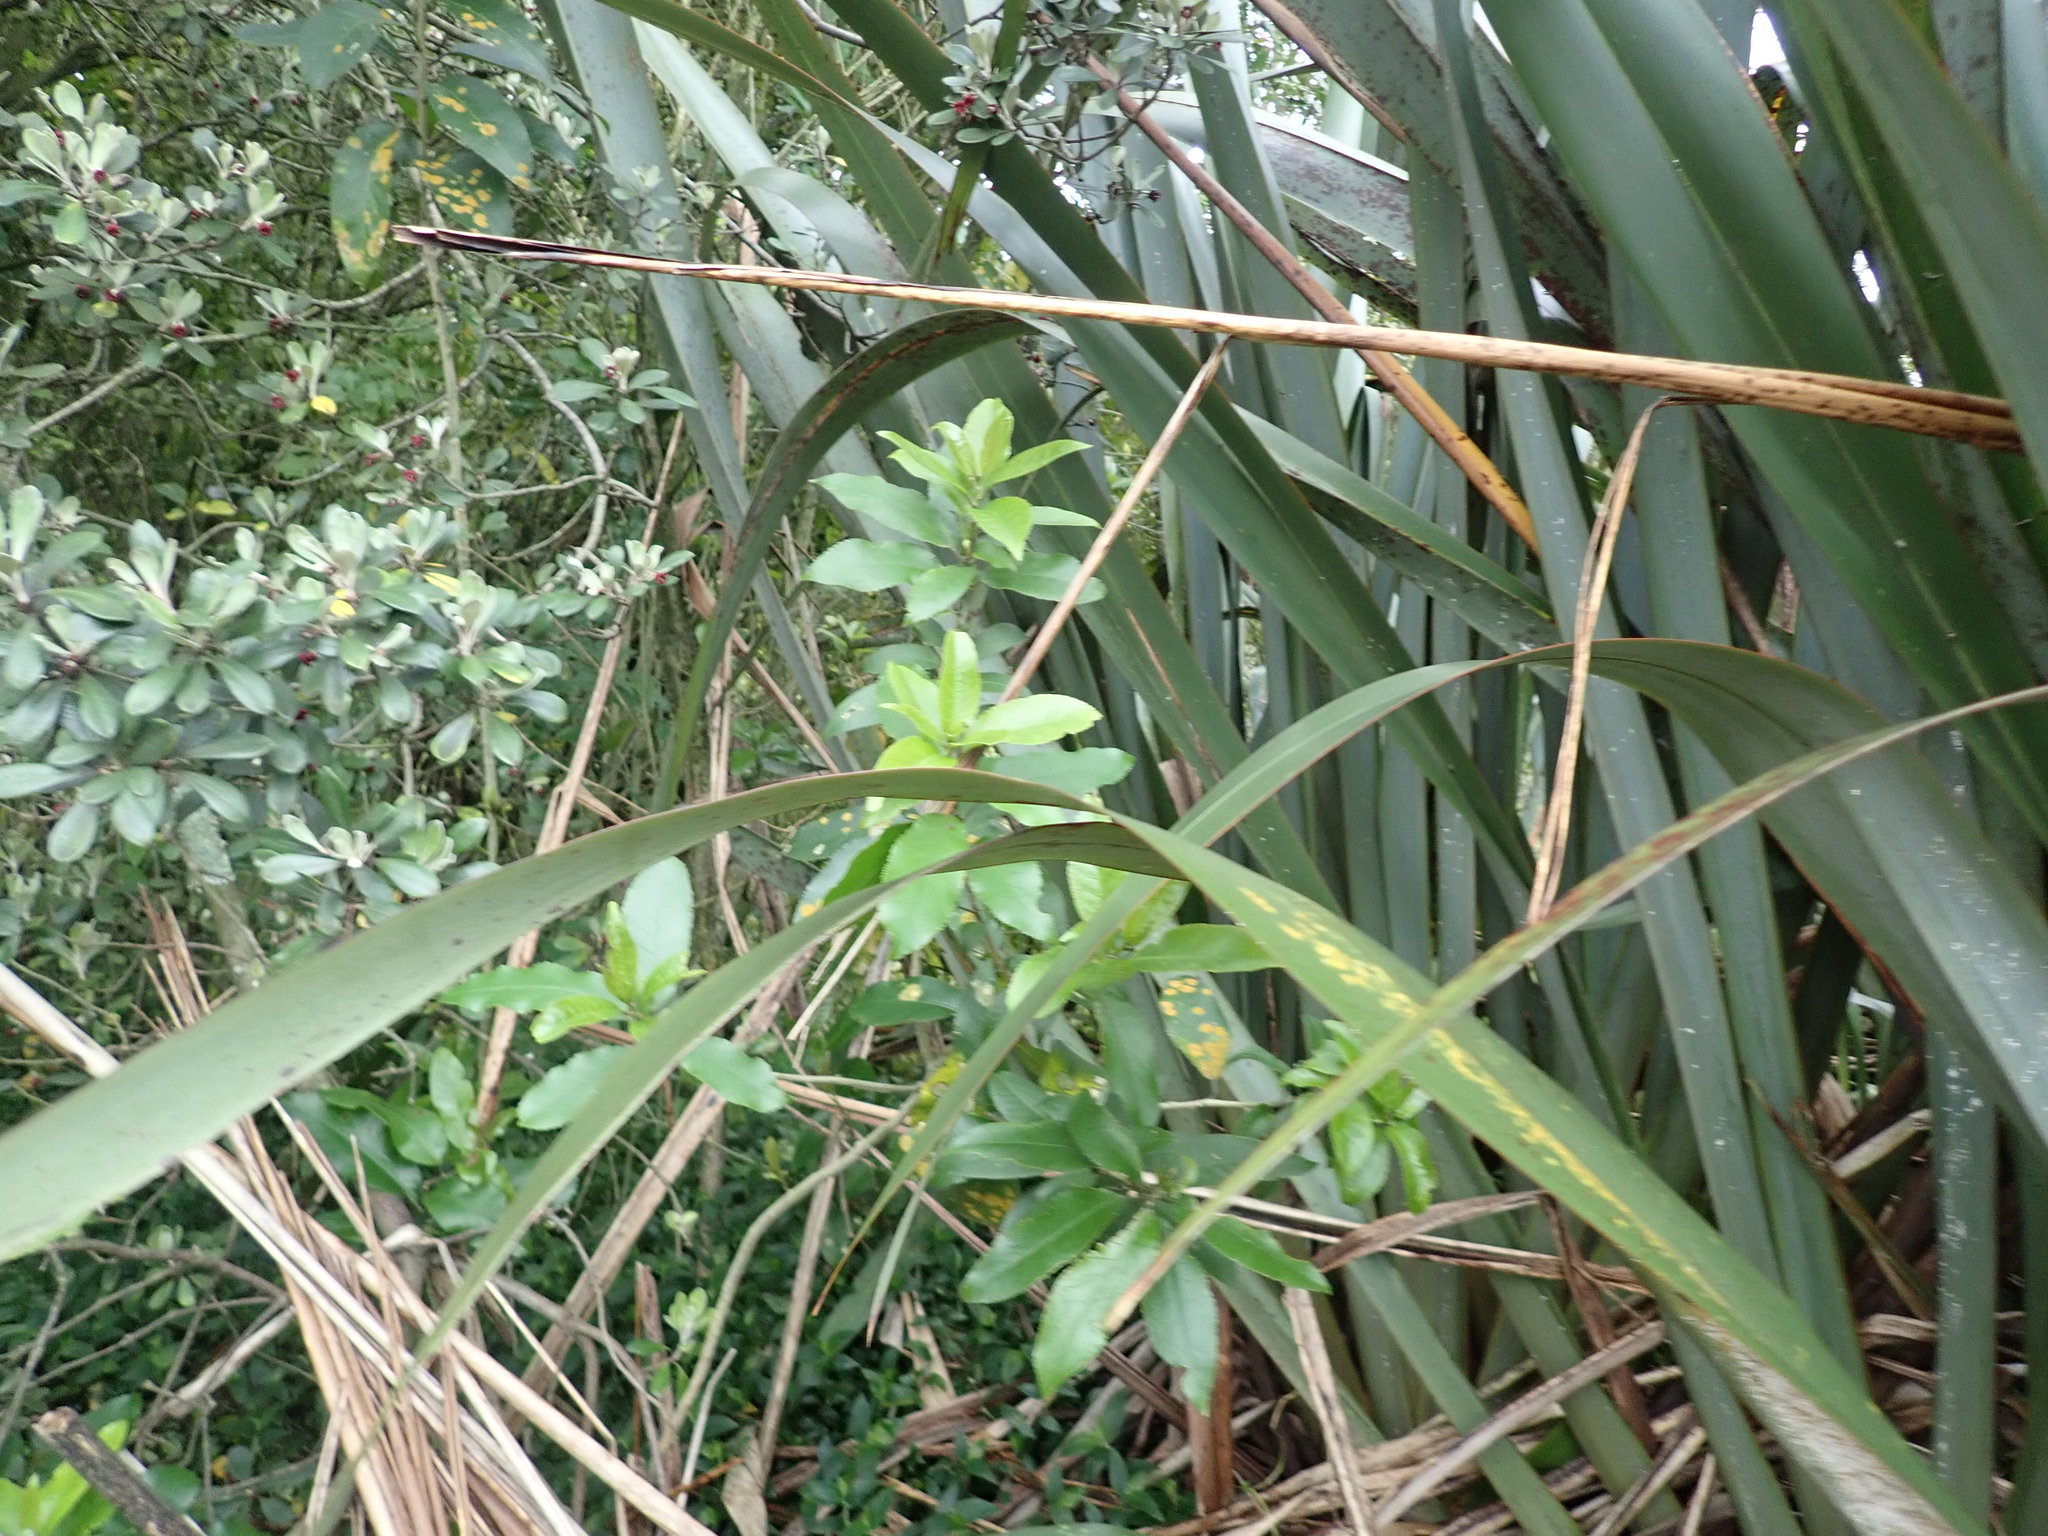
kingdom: Plantae
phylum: Tracheophyta
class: Magnoliopsida
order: Malpighiales
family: Violaceae
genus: Melicytus
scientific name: Melicytus ramiflorus
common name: Mahoe
